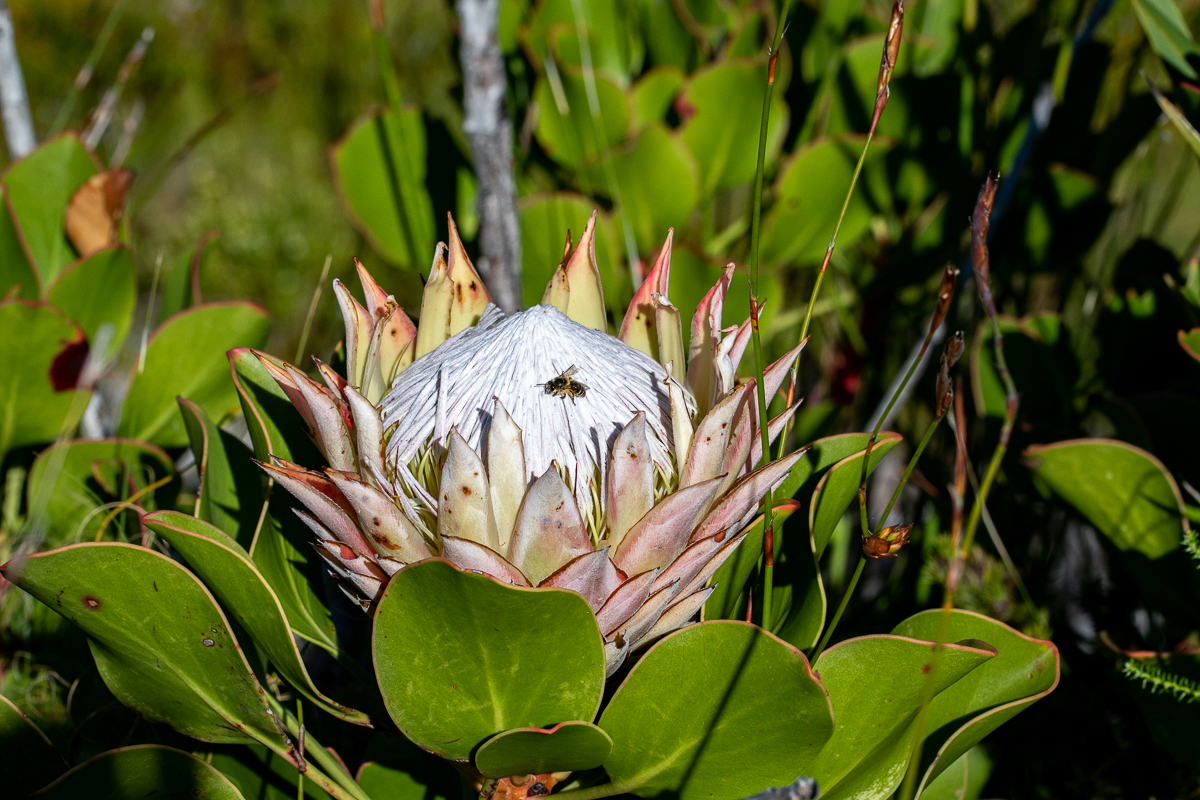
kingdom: Plantae
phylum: Tracheophyta
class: Magnoliopsida
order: Proteales
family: Proteaceae
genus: Protea
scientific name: Protea cynaroides
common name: King protea
